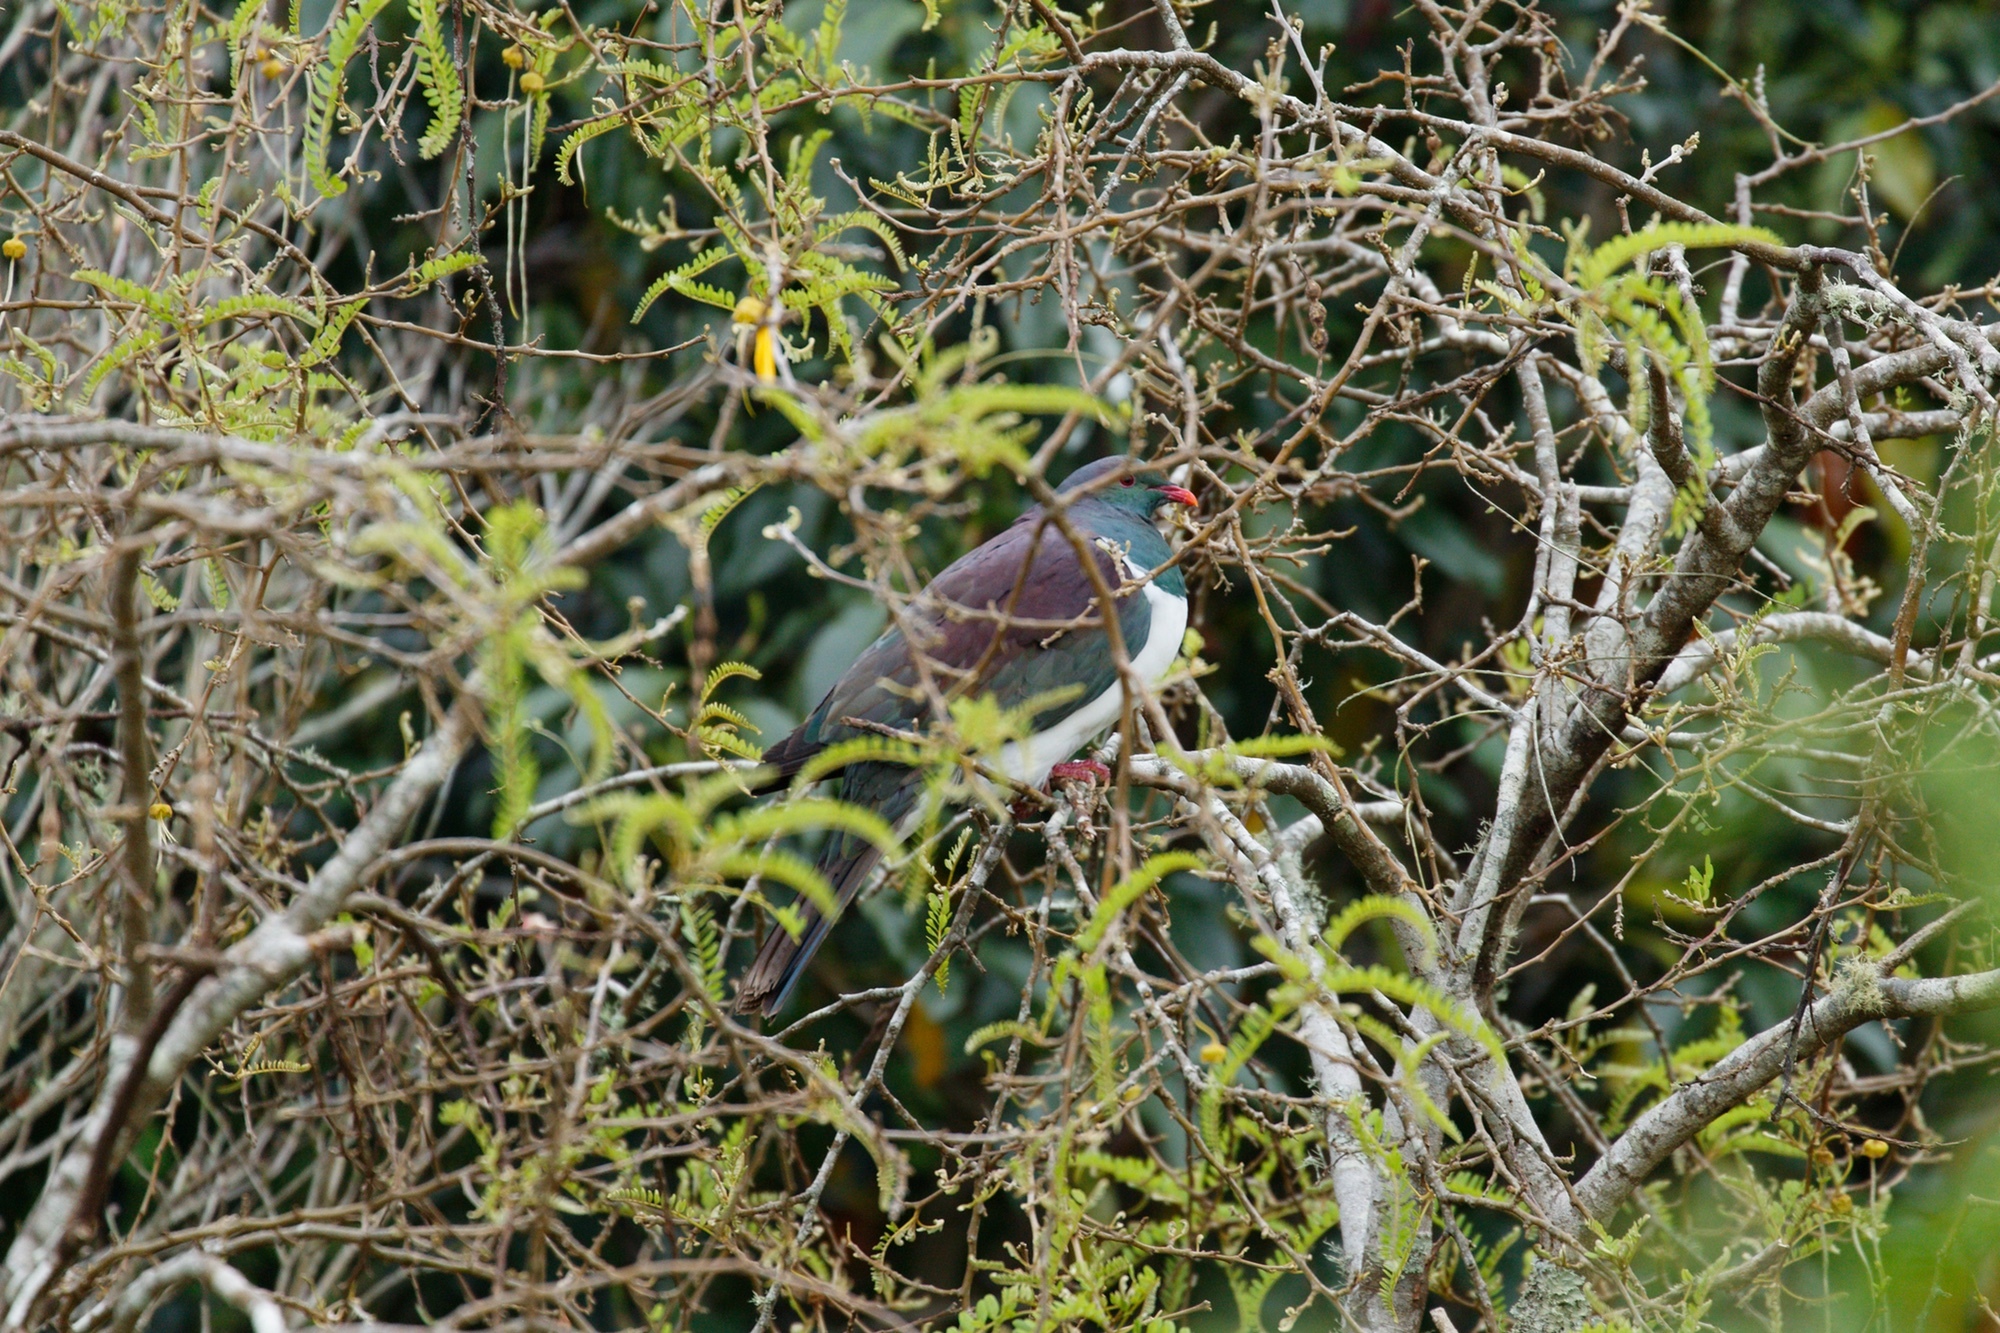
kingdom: Animalia
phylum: Chordata
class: Aves
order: Columbiformes
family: Columbidae
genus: Hemiphaga
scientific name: Hemiphaga novaeseelandiae
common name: New zealand pigeon
